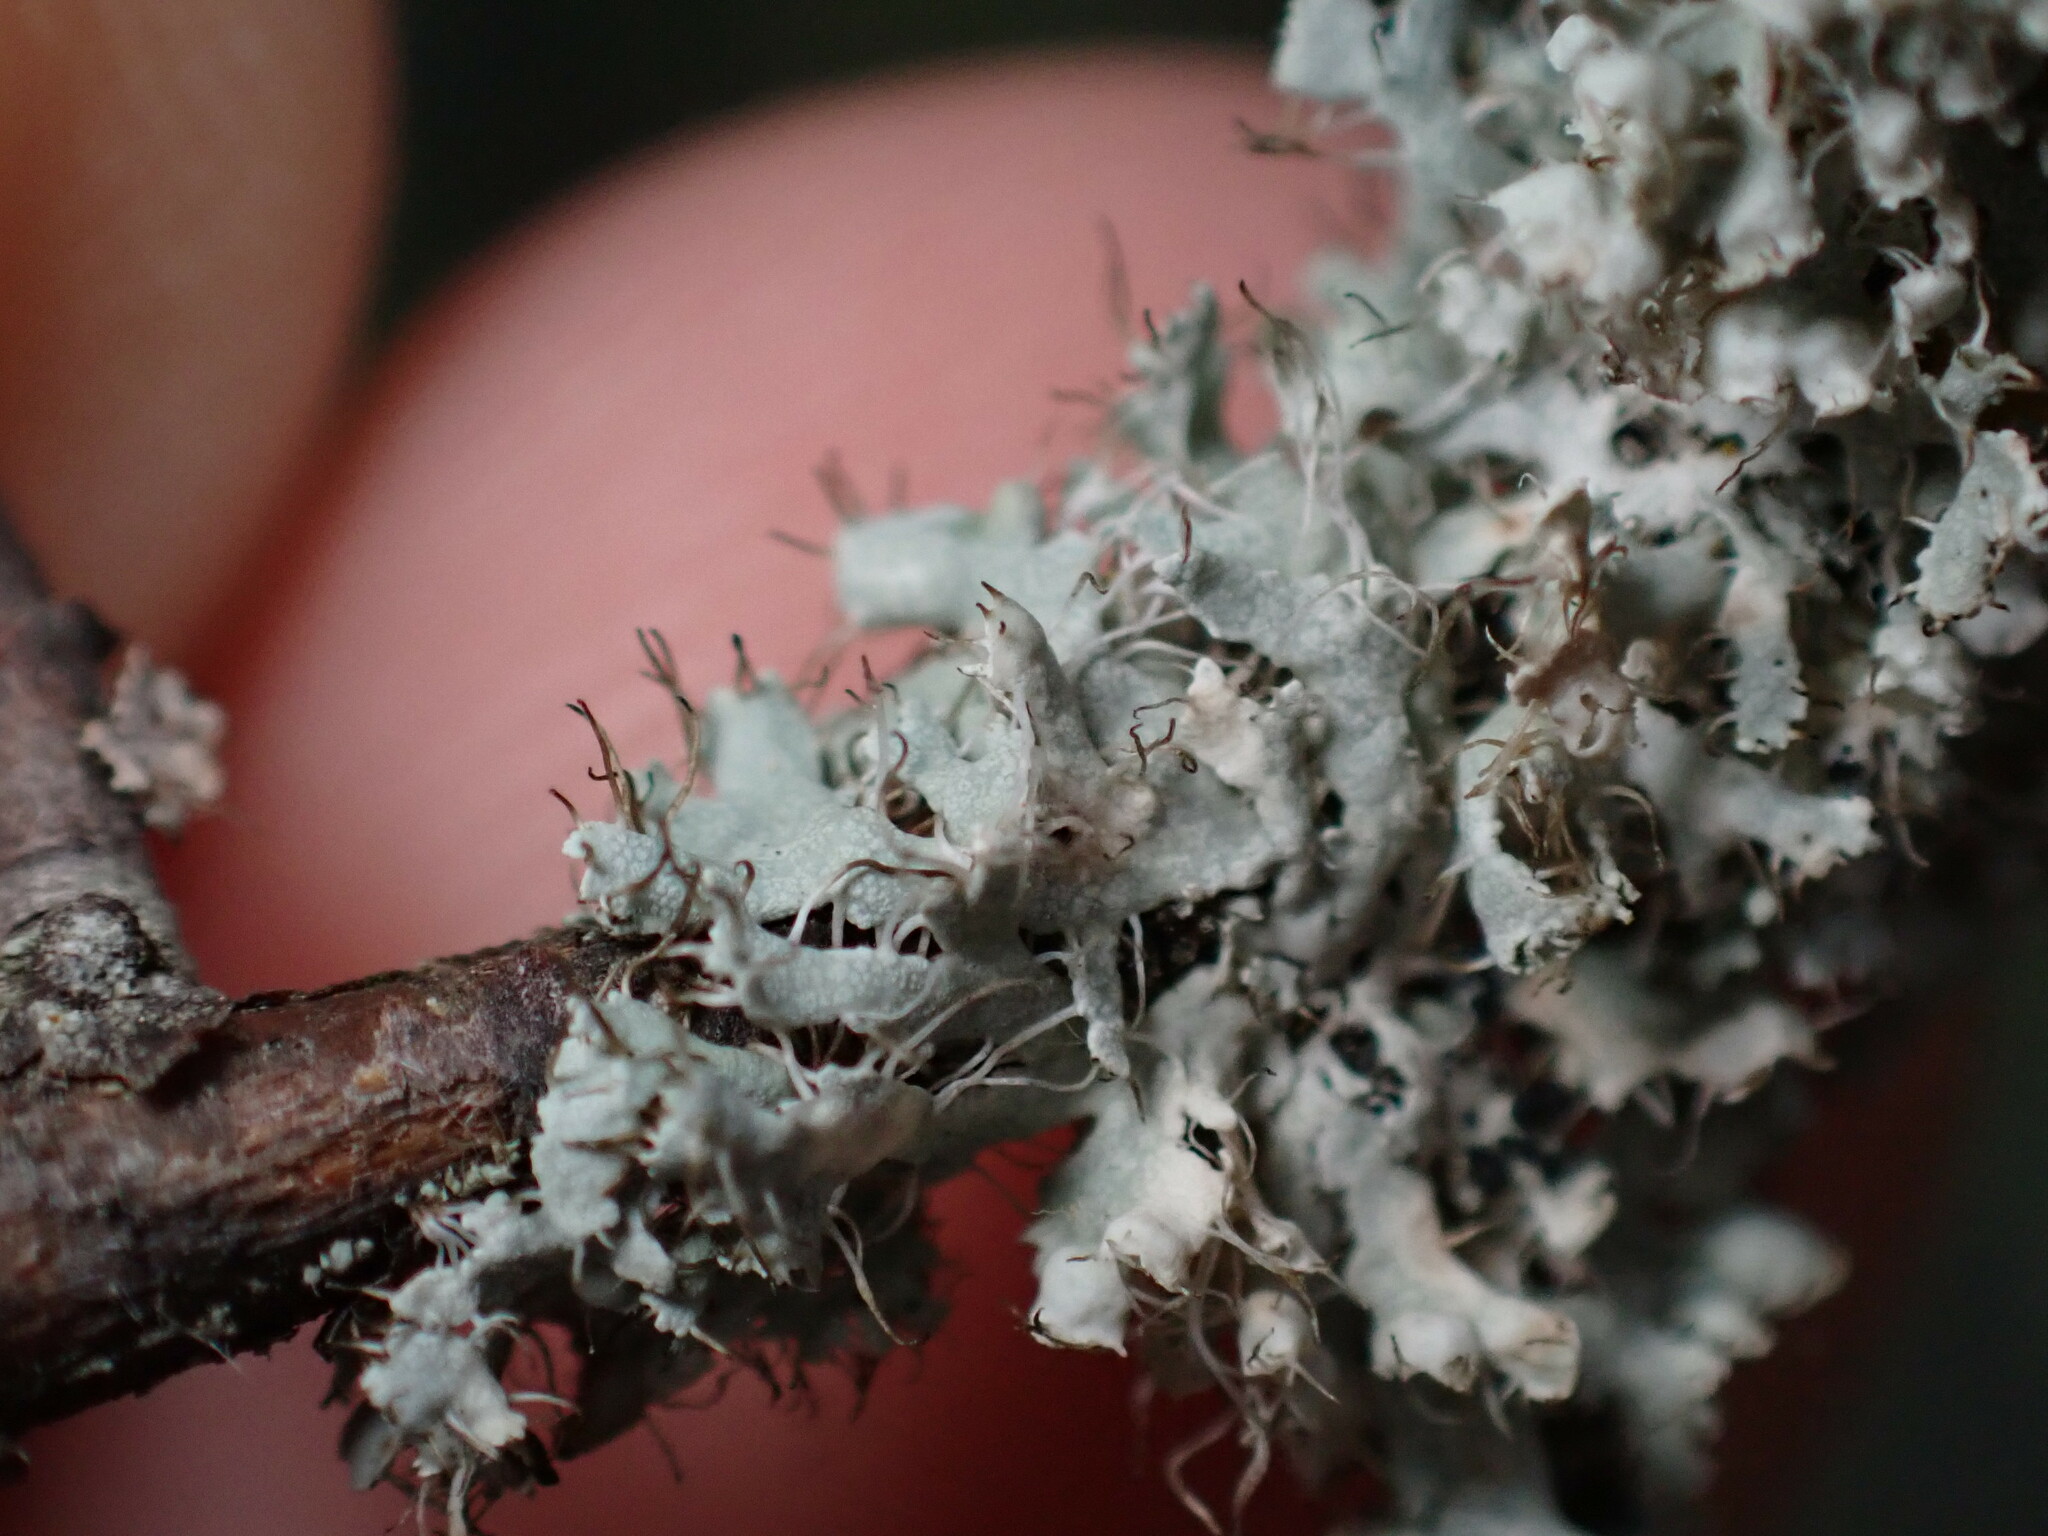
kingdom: Fungi
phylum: Ascomycota
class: Lecanoromycetes
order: Caliciales
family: Physciaceae
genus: Physcia
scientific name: Physcia adscendens
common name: Hooded rosette lichen
